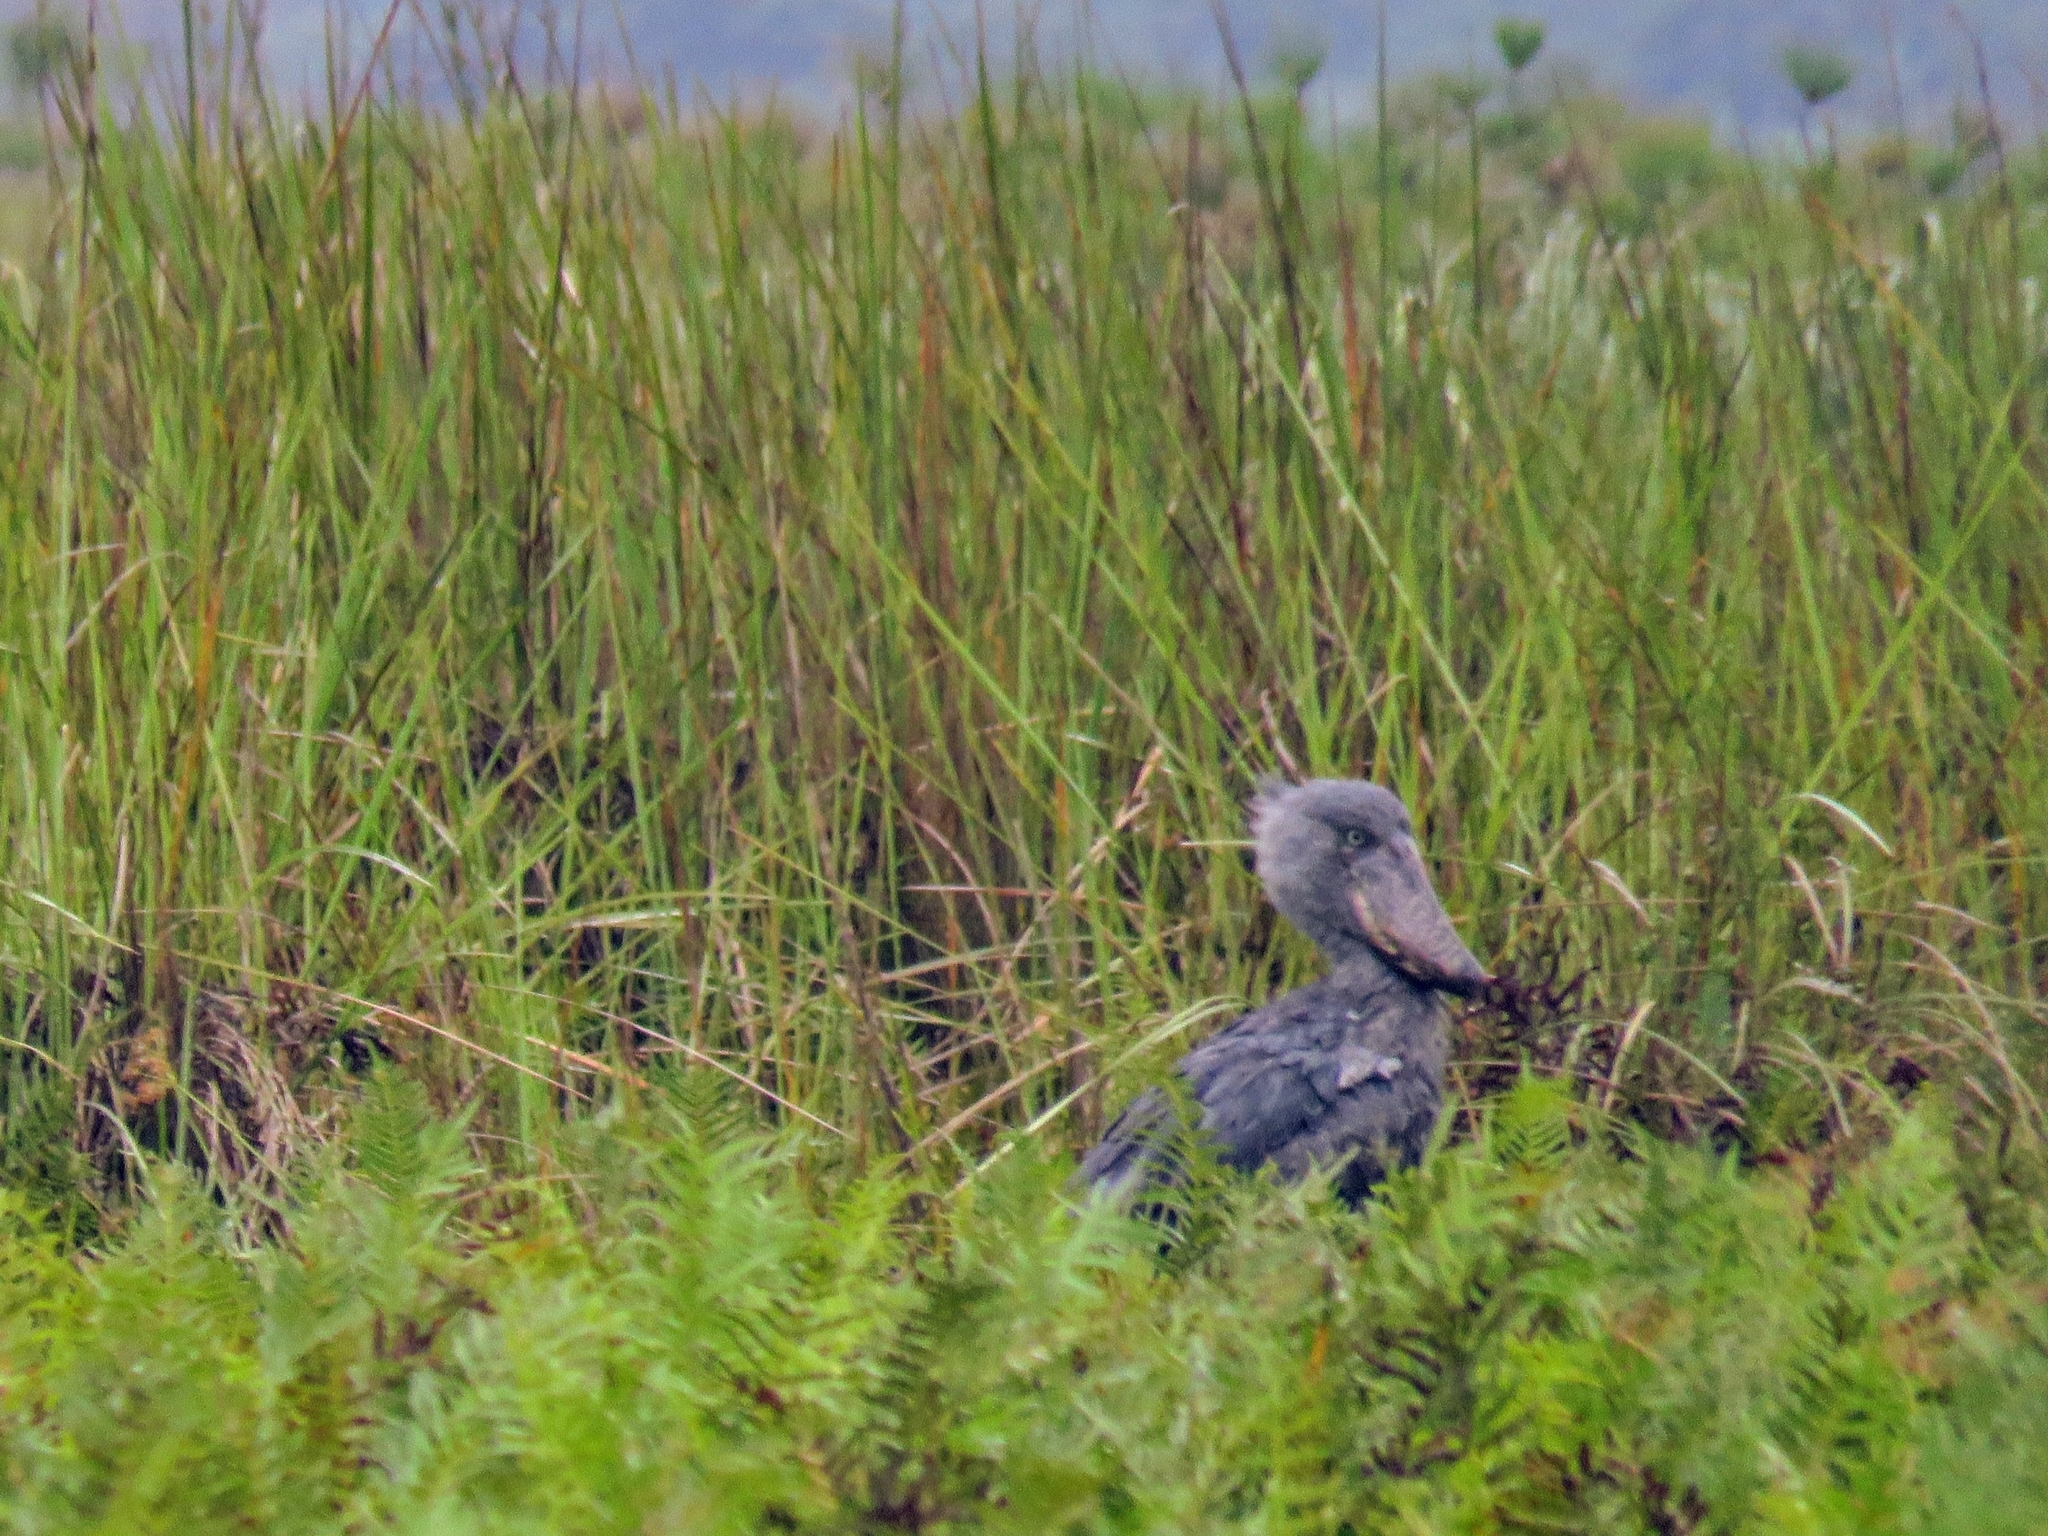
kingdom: Animalia
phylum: Chordata
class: Aves
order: Pelecaniformes
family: Balaenicipitidae
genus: Balaeniceps
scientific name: Balaeniceps rex
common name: Shoebill
